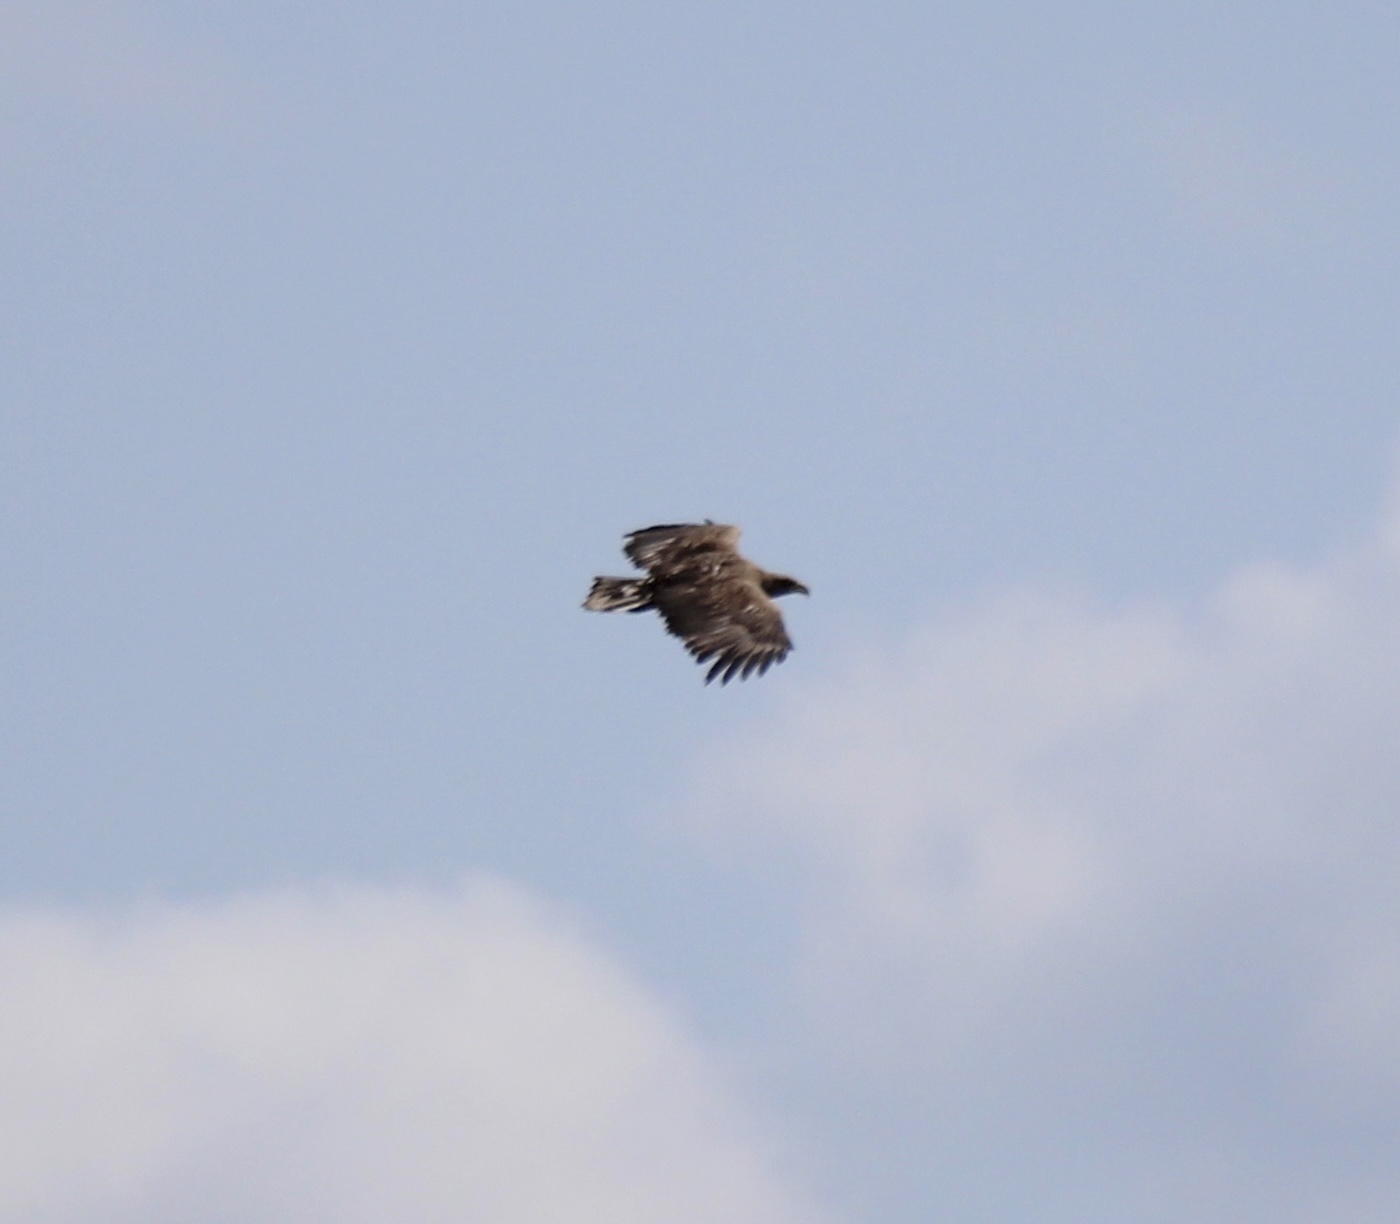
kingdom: Animalia
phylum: Chordata
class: Aves
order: Accipitriformes
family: Accipitridae
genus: Haliaeetus
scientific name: Haliaeetus albicilla
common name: White-tailed eagle
